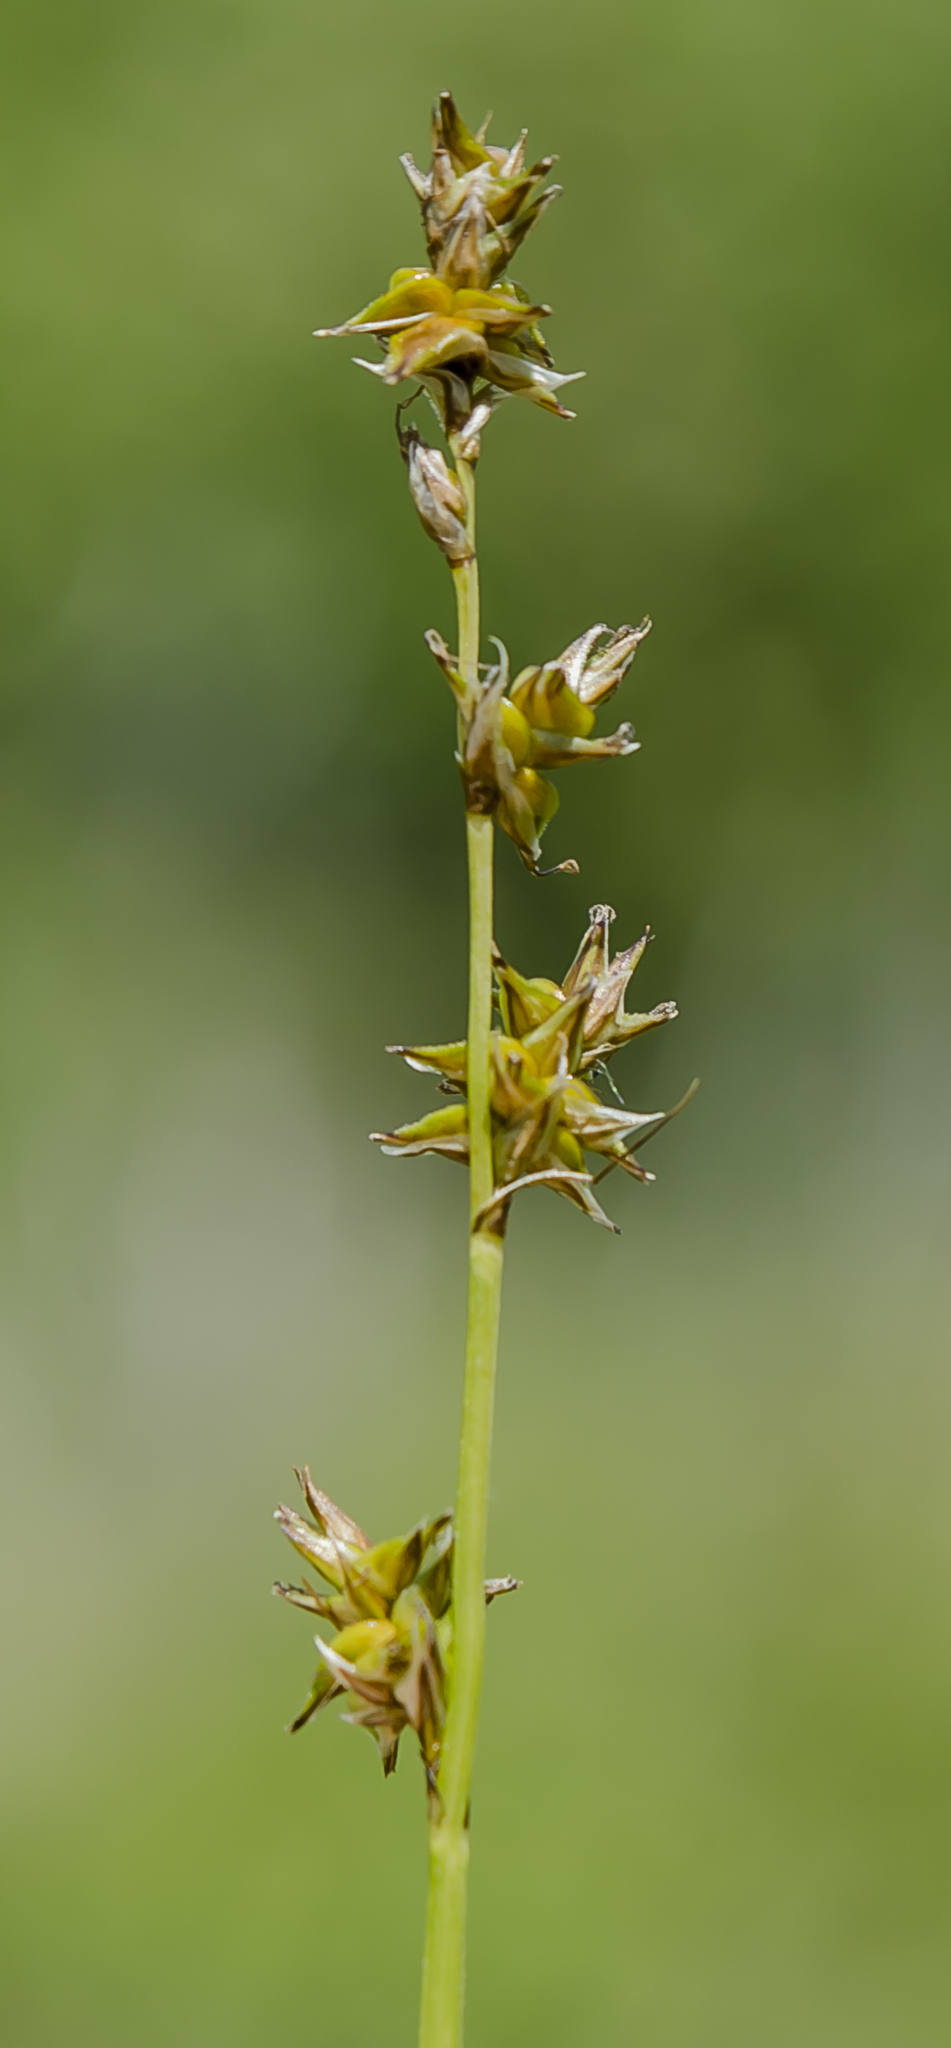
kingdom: Plantae
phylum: Tracheophyta
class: Liliopsida
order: Poales
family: Cyperaceae
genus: Carex
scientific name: Carex sterilis
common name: Dioecious sedge
